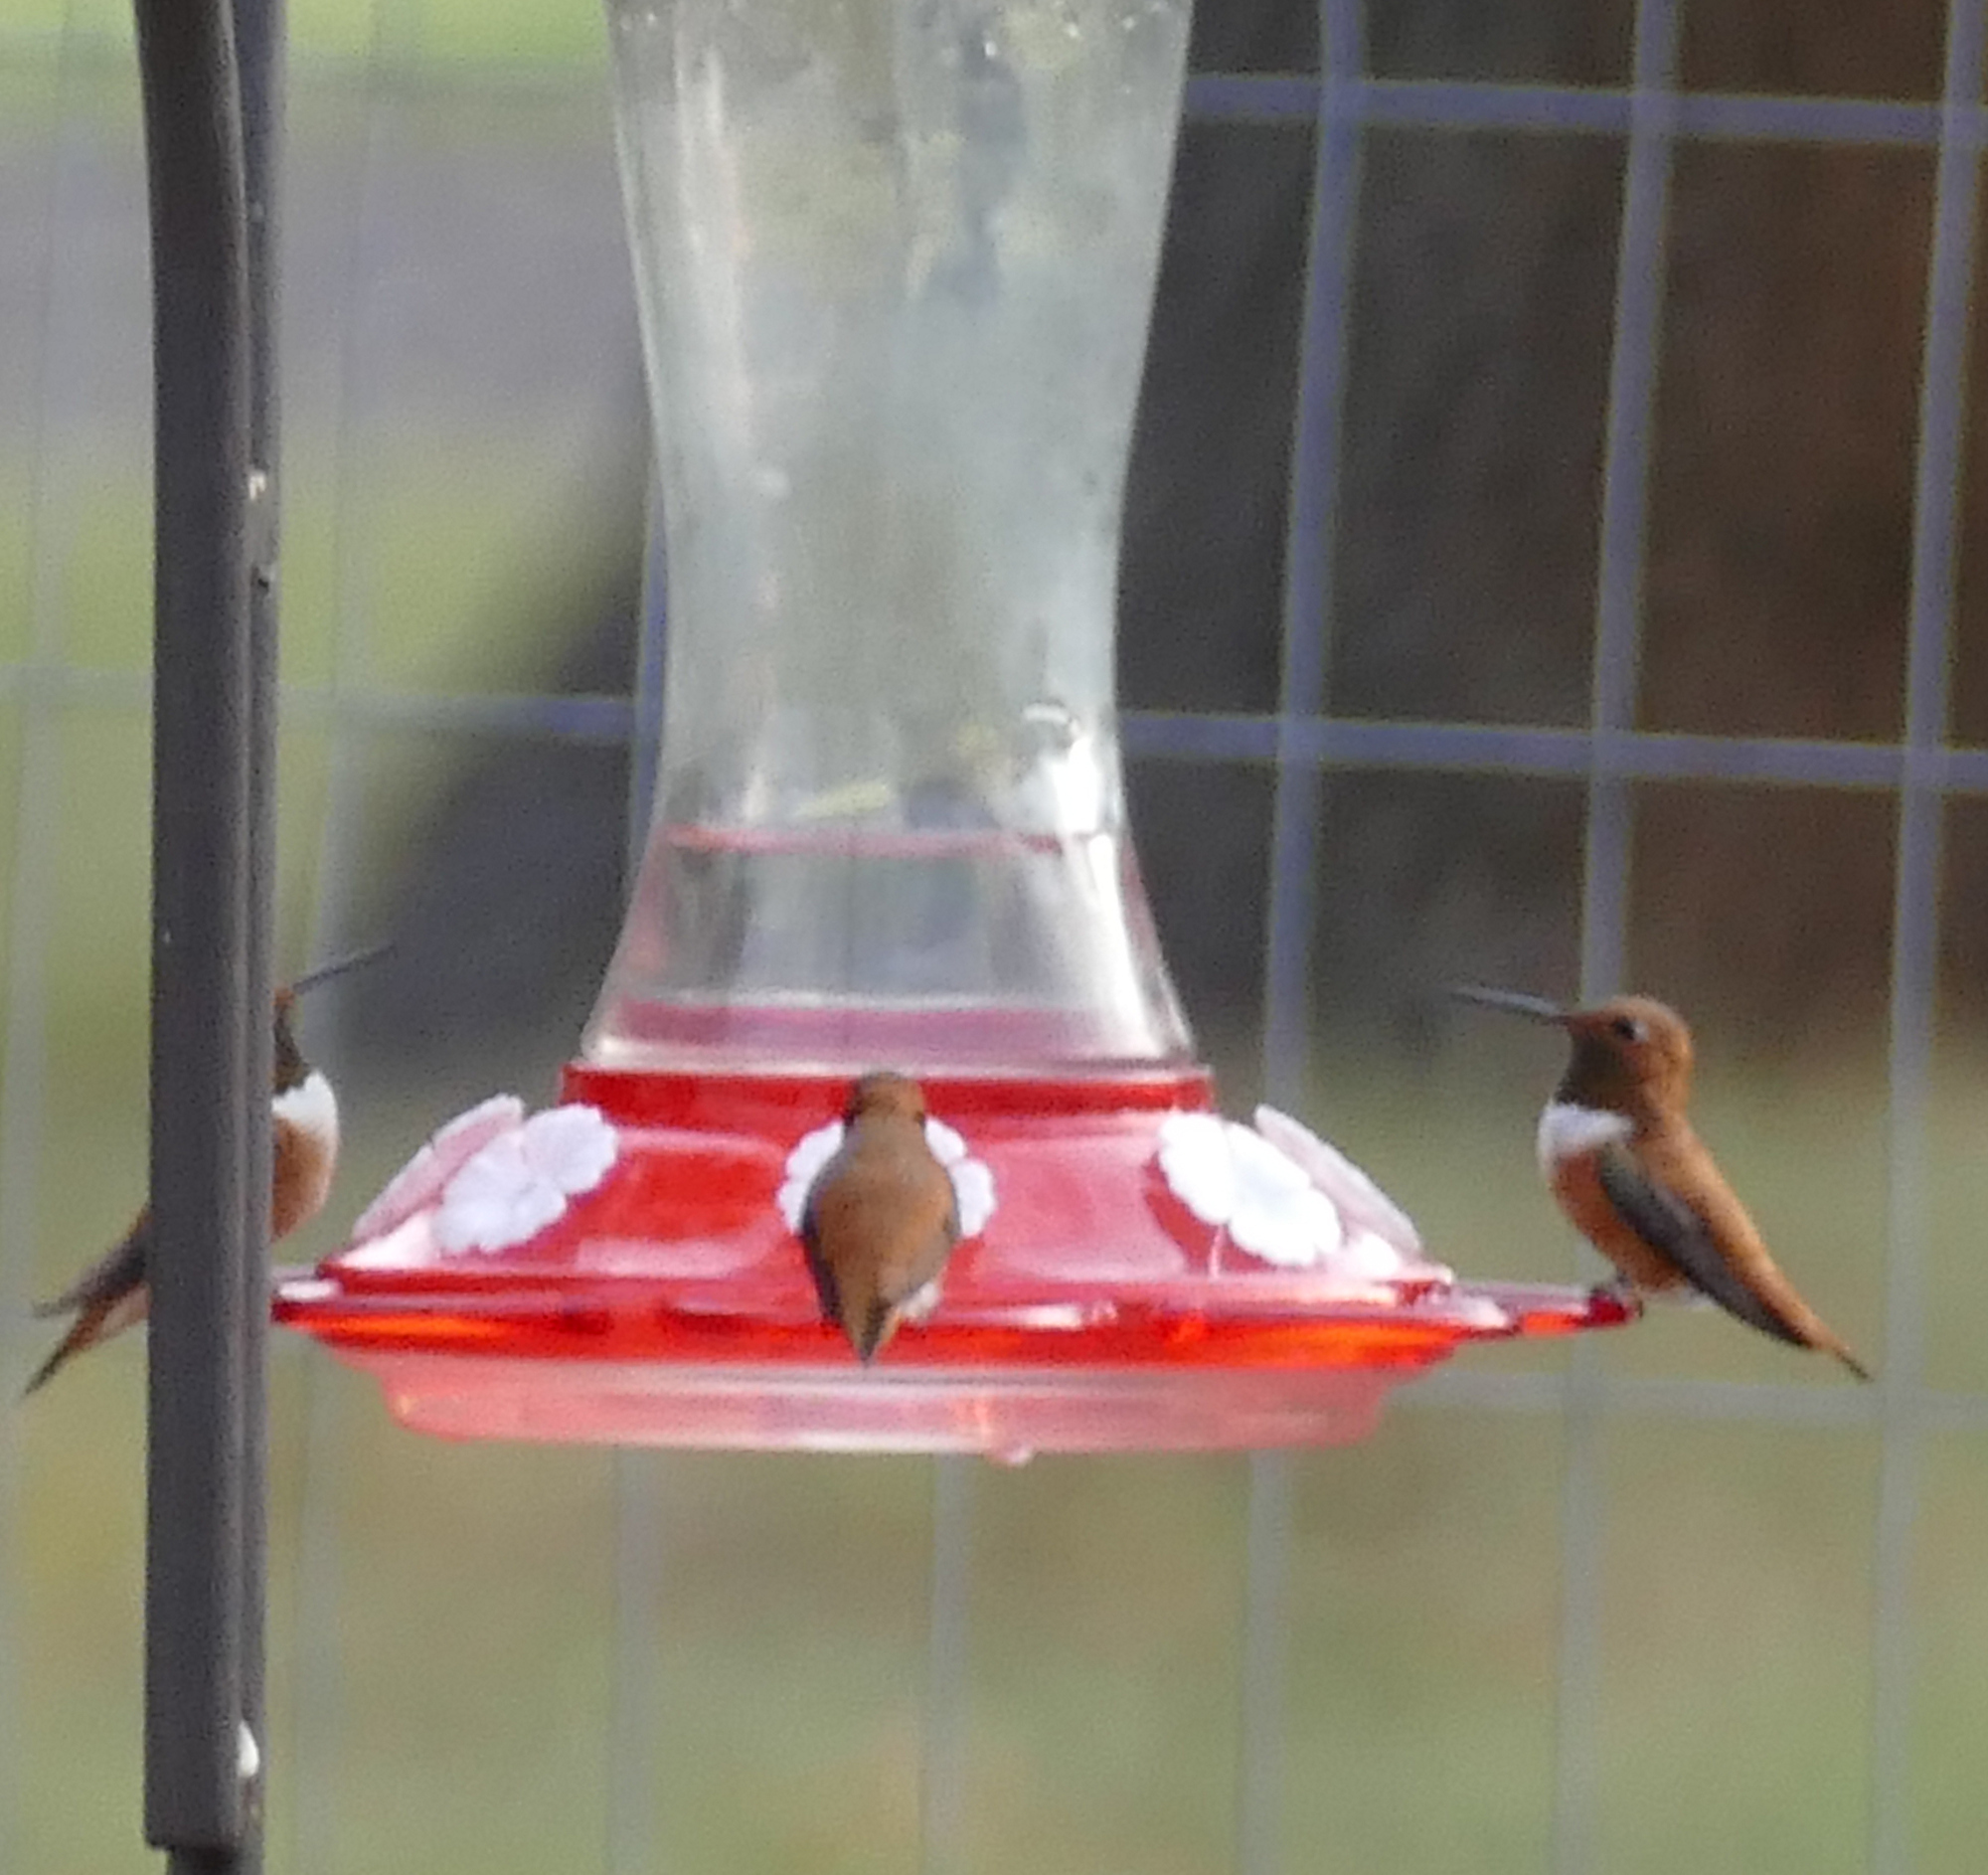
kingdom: Animalia
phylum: Chordata
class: Aves
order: Apodiformes
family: Trochilidae
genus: Selasphorus
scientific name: Selasphorus rufus
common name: Rufous hummingbird
